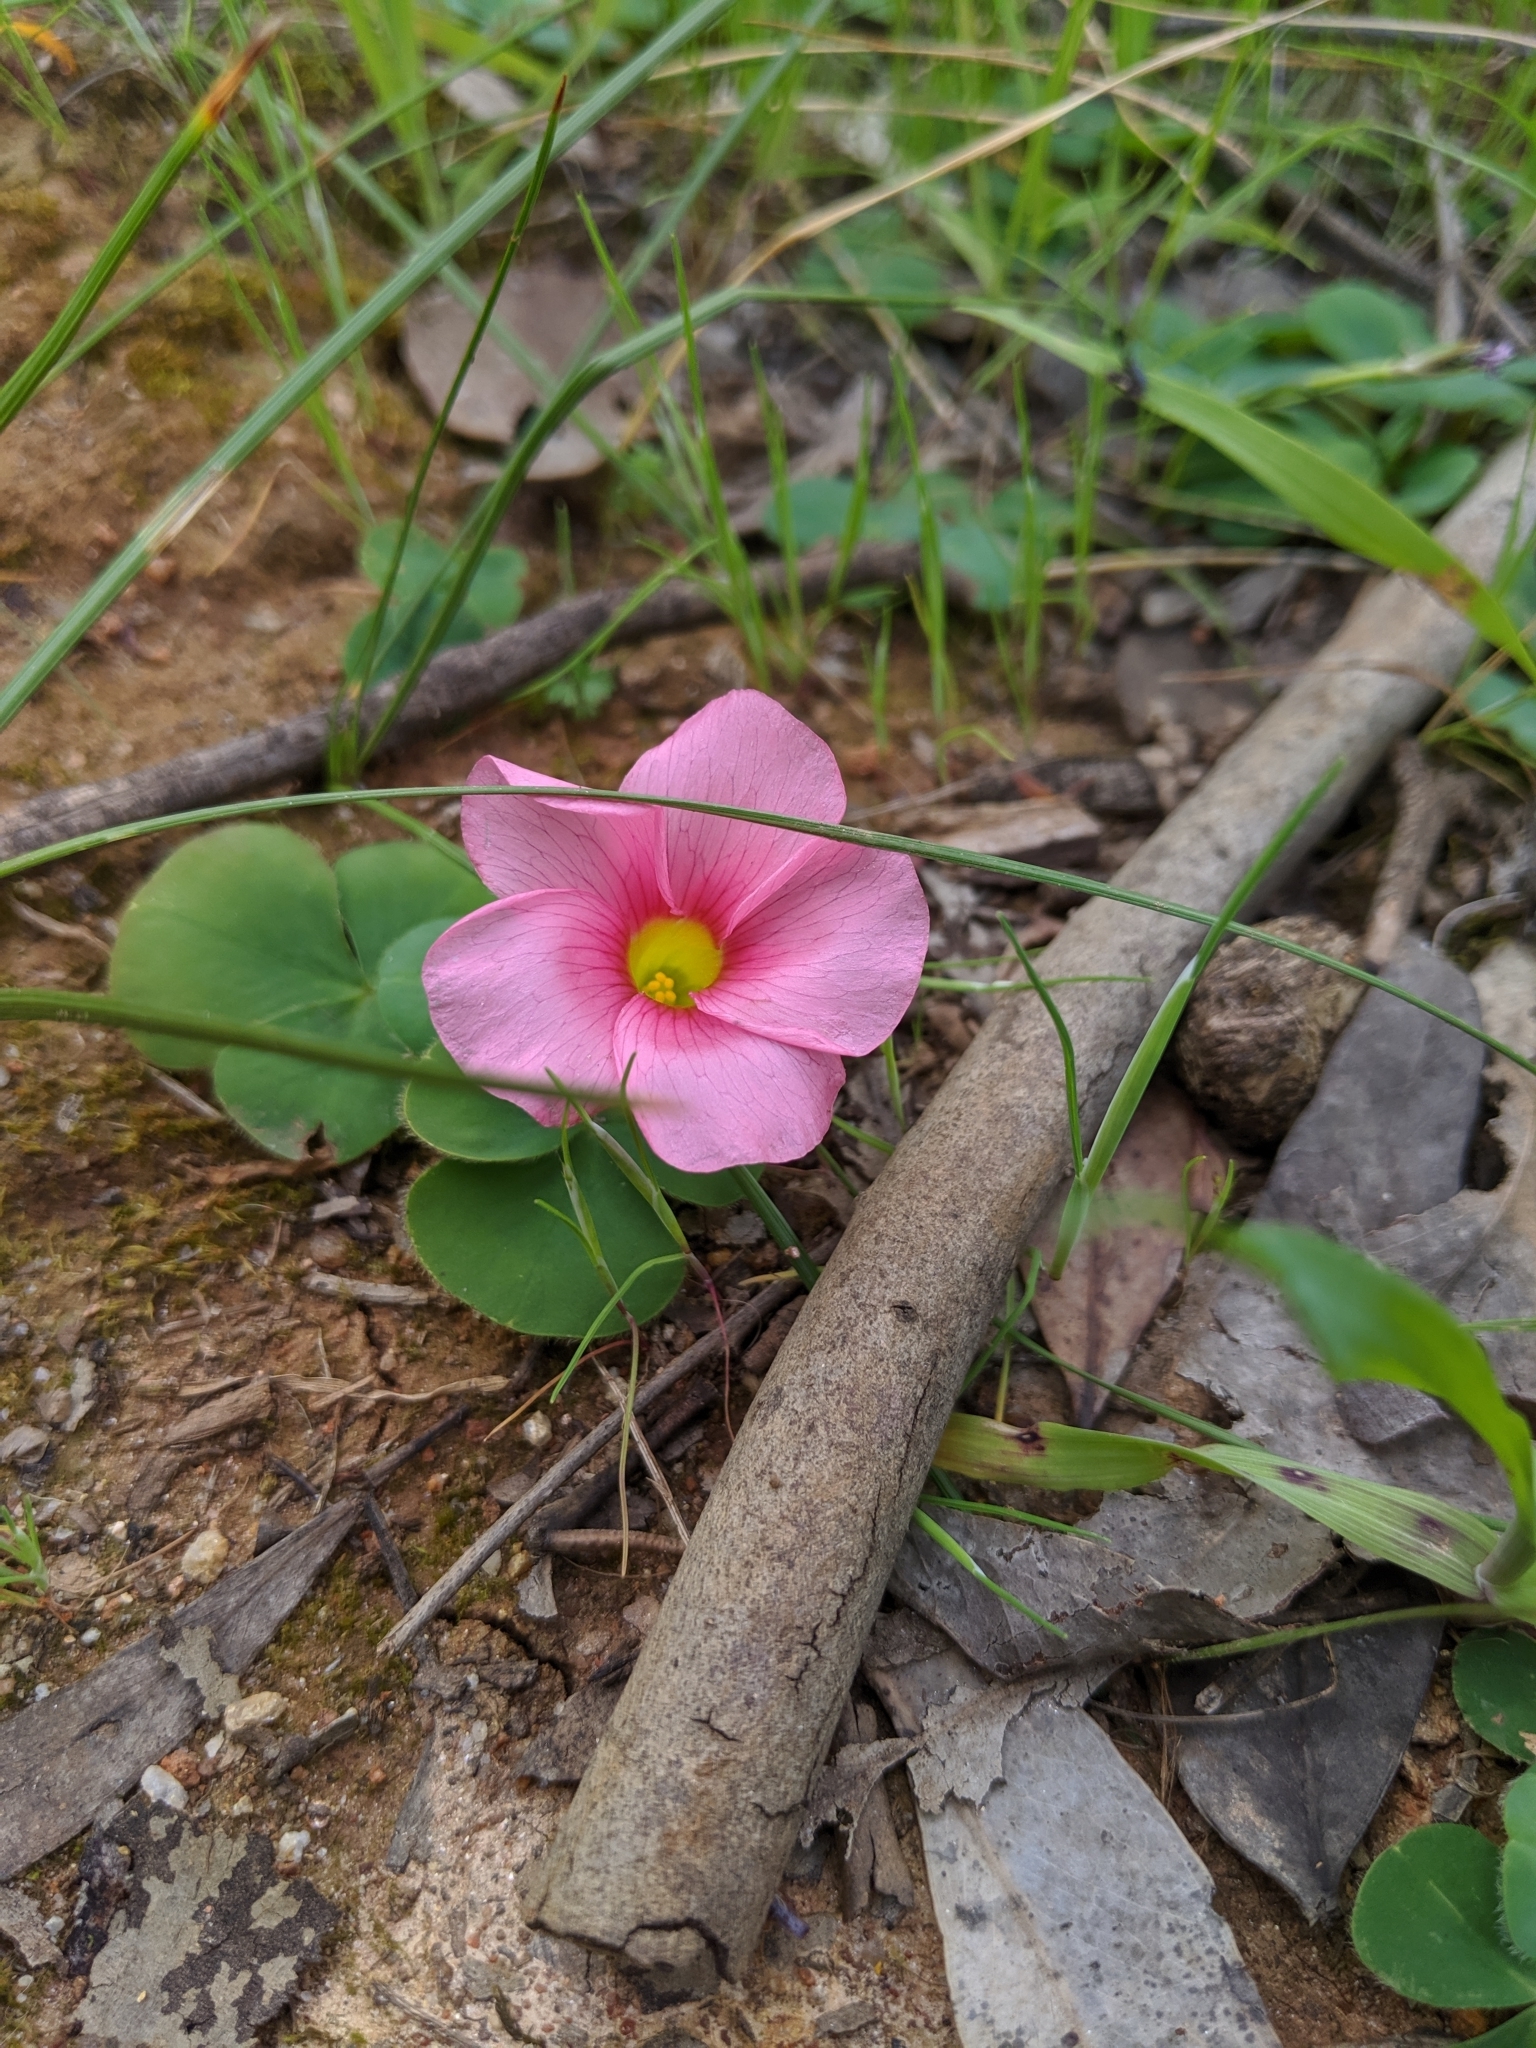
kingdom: Plantae
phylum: Tracheophyta
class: Magnoliopsida
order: Oxalidales
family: Oxalidaceae
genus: Oxalis
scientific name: Oxalis purpurea
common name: Purple woodsorrel
